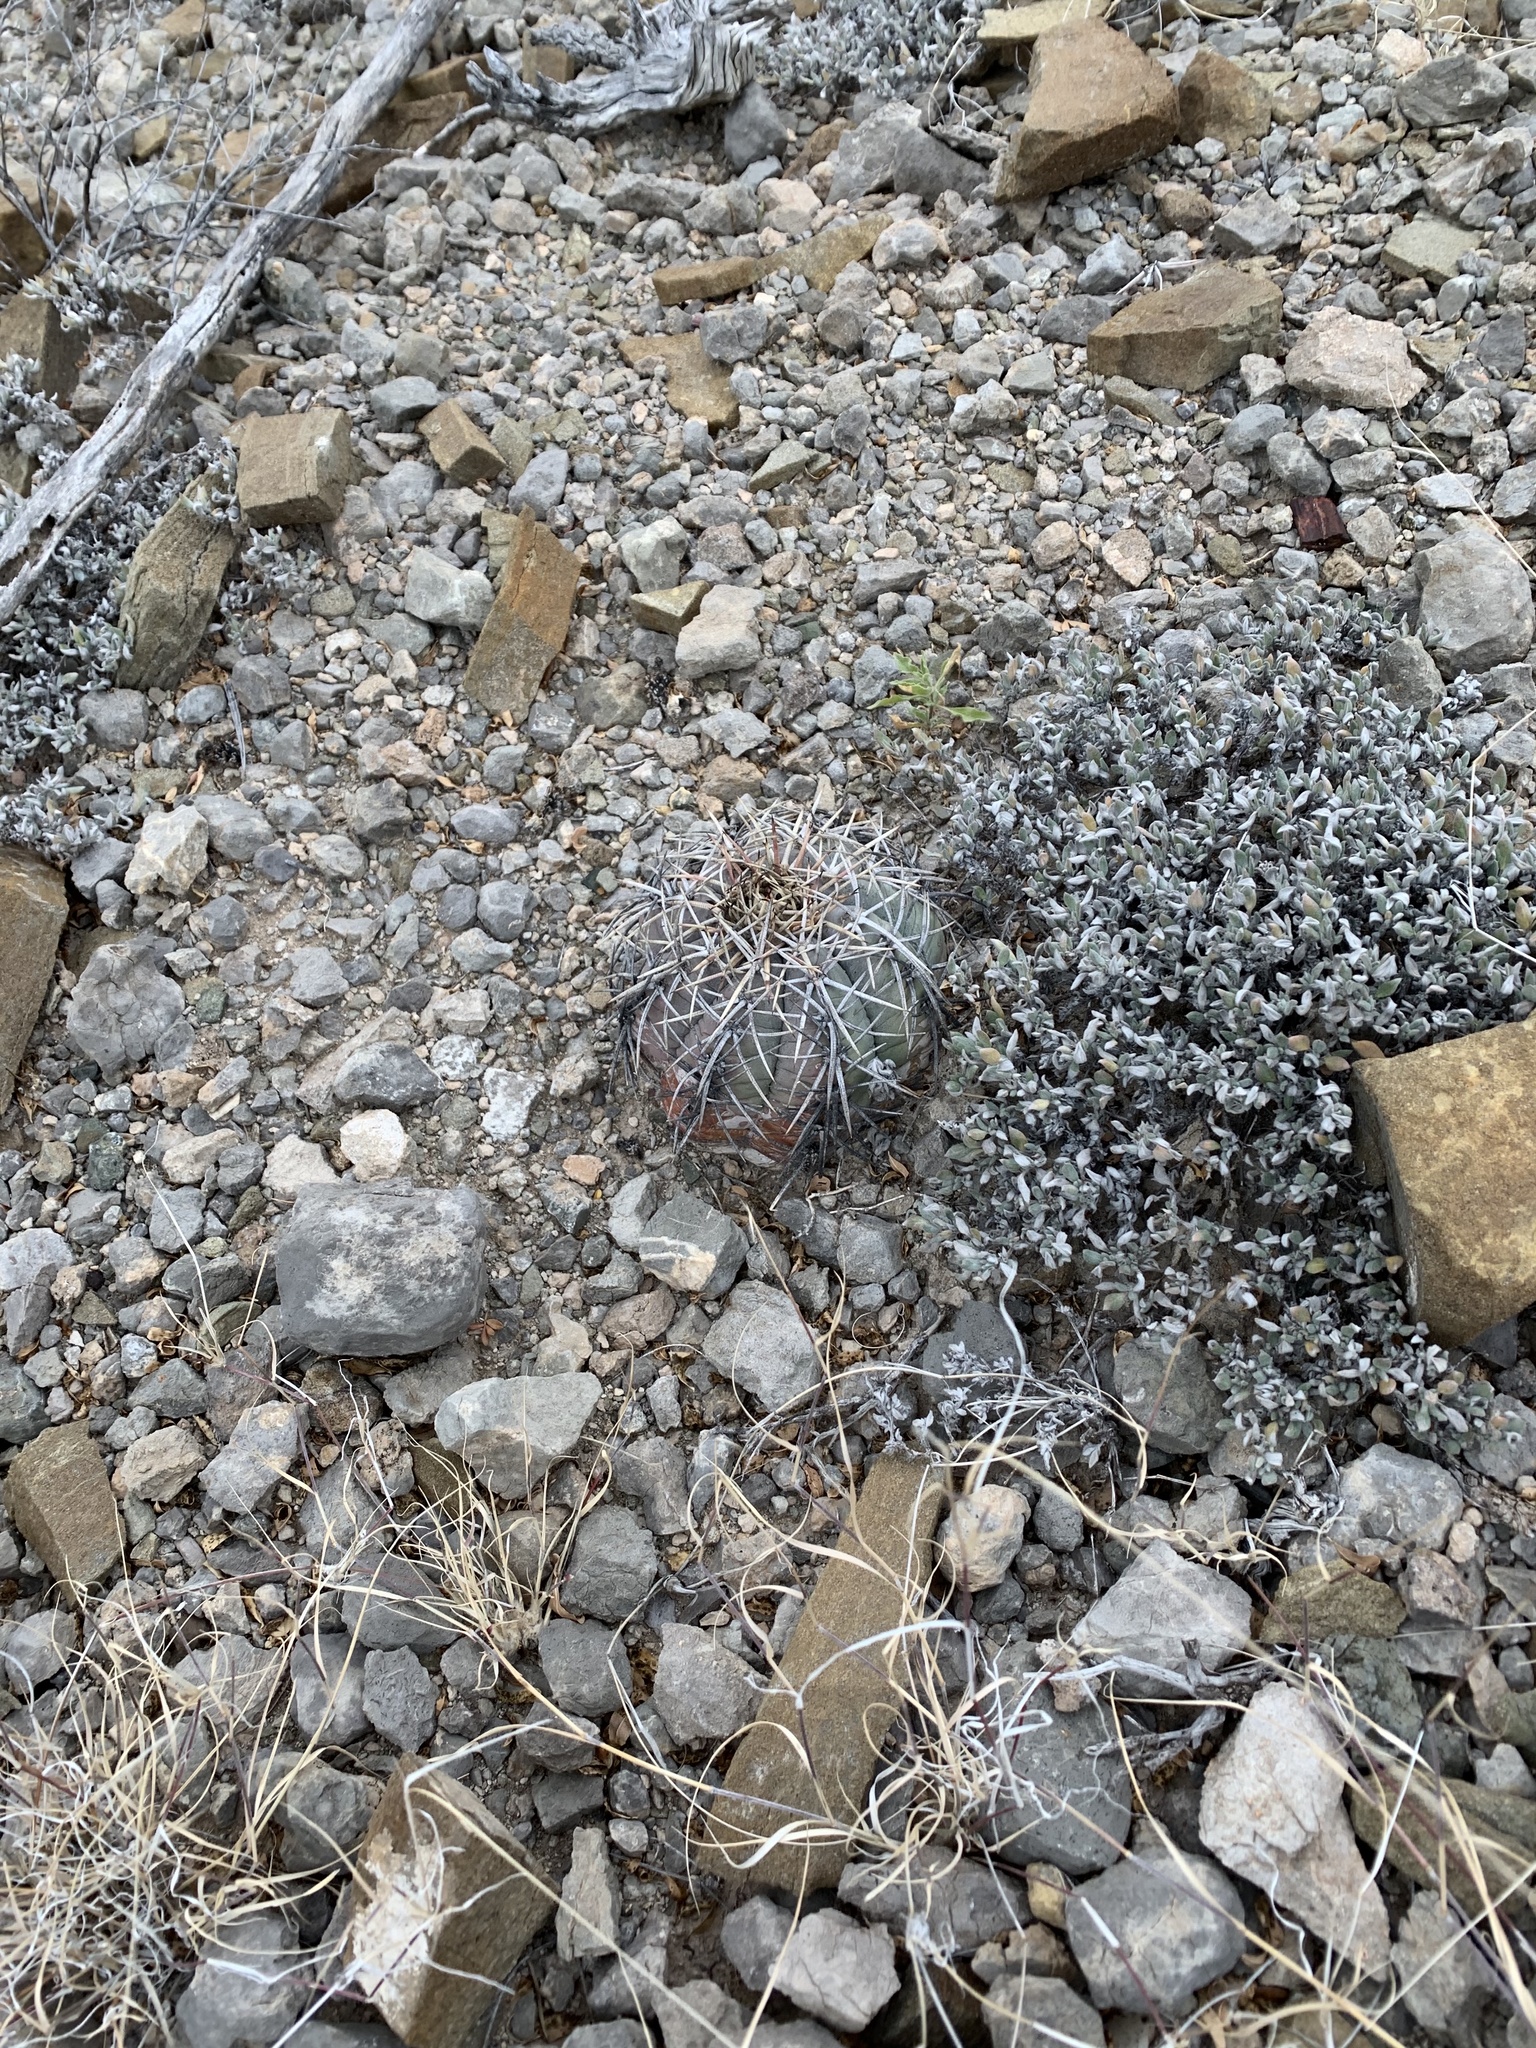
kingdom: Plantae
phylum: Tracheophyta
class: Magnoliopsida
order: Caryophyllales
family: Cactaceae
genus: Echinocactus
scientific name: Echinocactus horizonthalonius
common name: Devilshead
